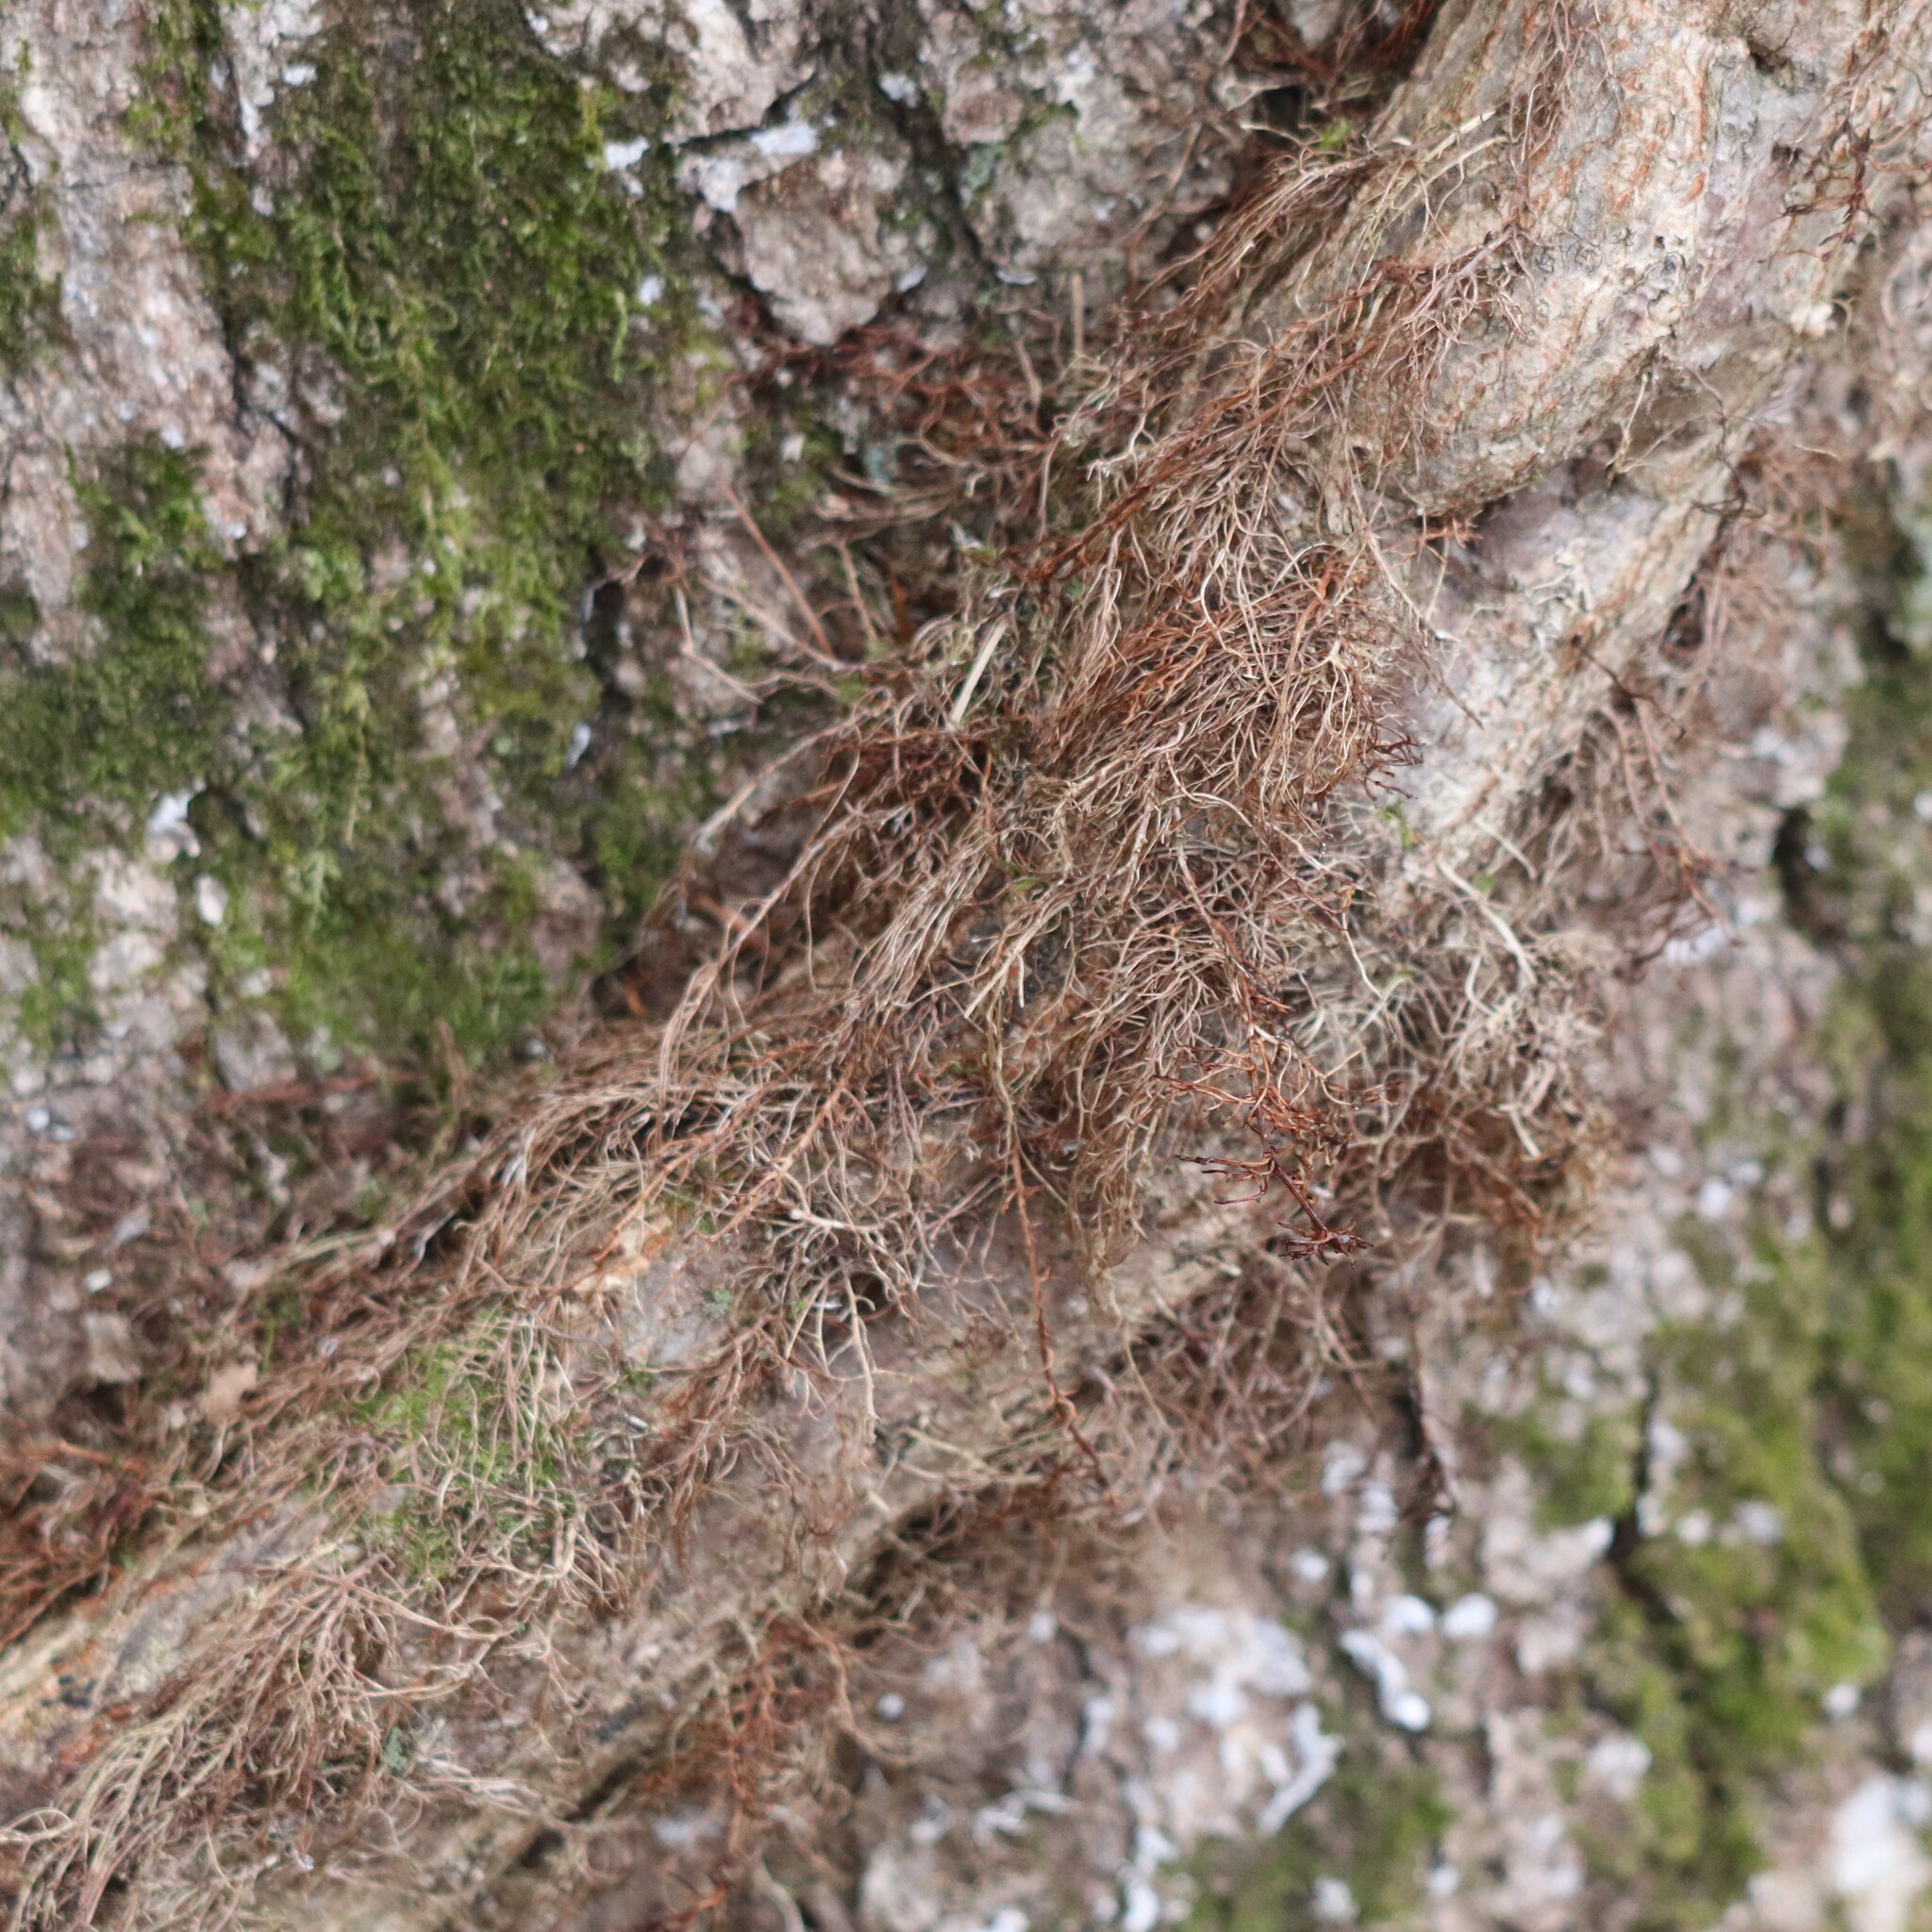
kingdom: Plantae
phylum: Tracheophyta
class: Magnoliopsida
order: Sapindales
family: Anacardiaceae
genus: Toxicodendron
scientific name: Toxicodendron radicans
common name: Poison ivy
